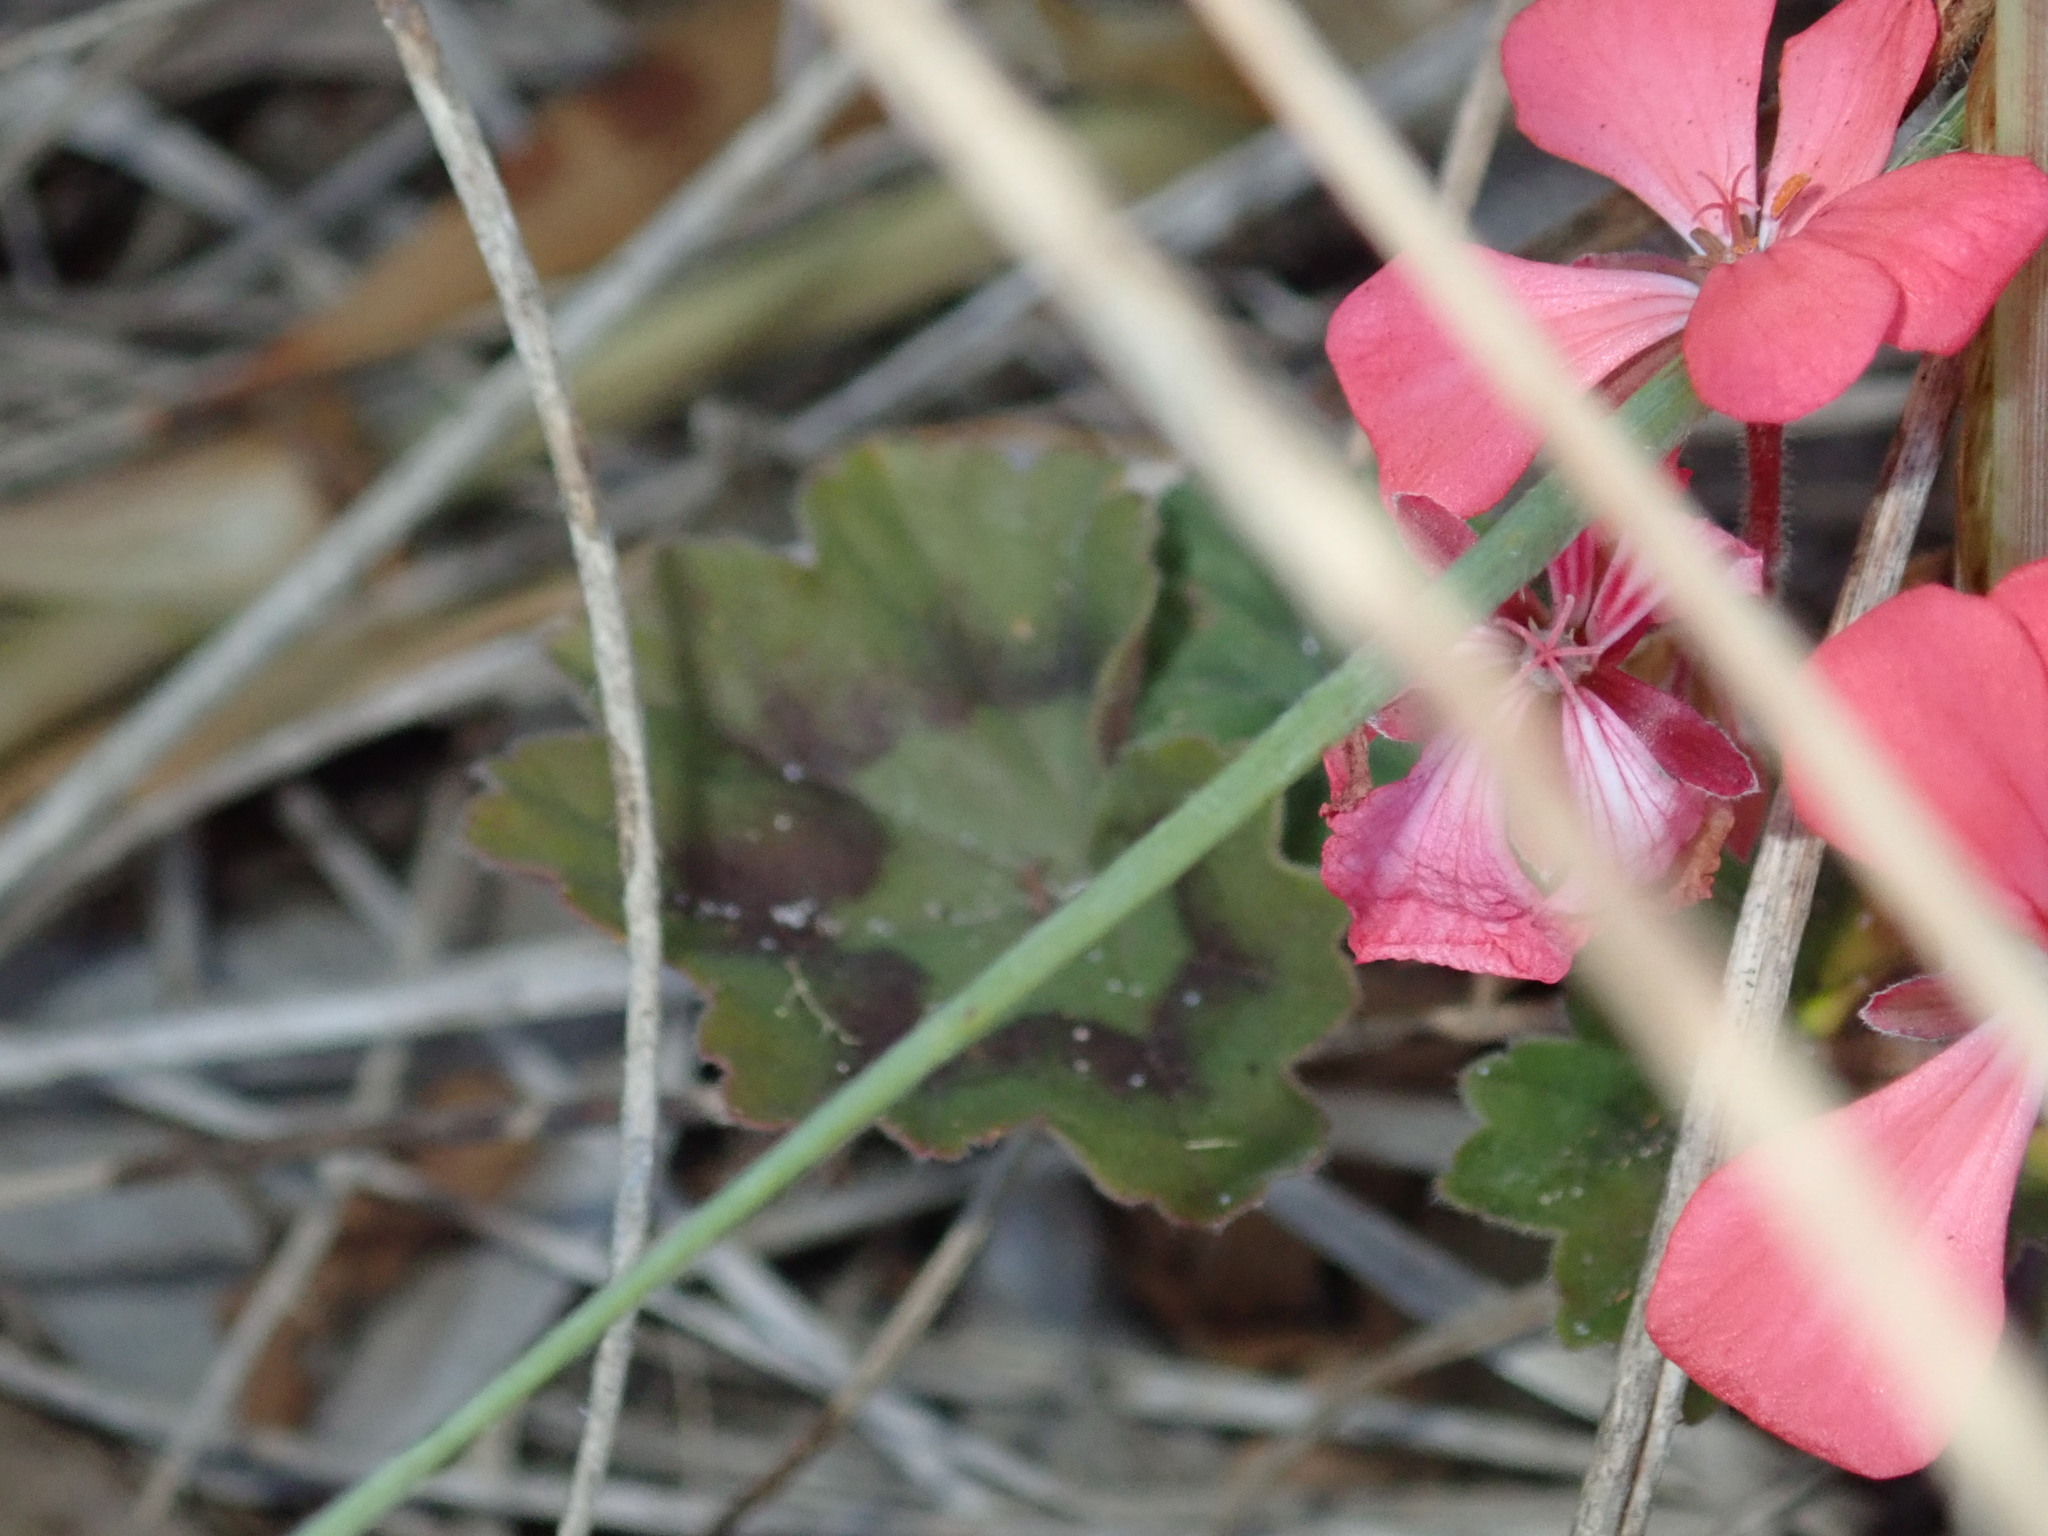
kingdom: Plantae
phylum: Tracheophyta
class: Magnoliopsida
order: Geraniales
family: Geraniaceae
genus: Pelargonium
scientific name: Pelargonium hybridum
